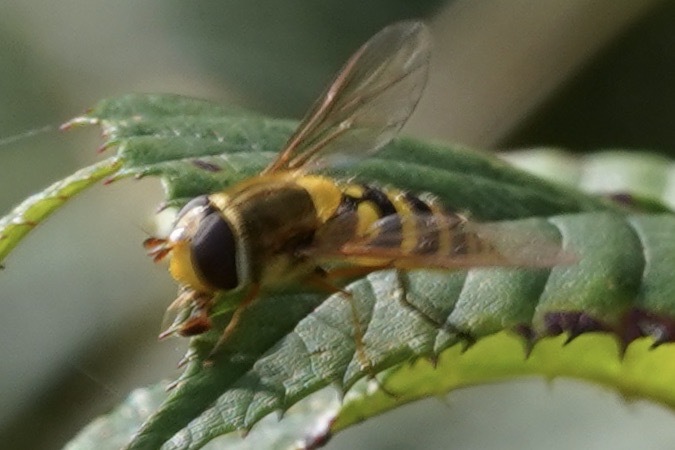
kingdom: Animalia
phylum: Arthropoda
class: Insecta
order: Diptera
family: Syrphidae
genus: Syrphus
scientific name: Syrphus ribesii
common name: Common flower fly
